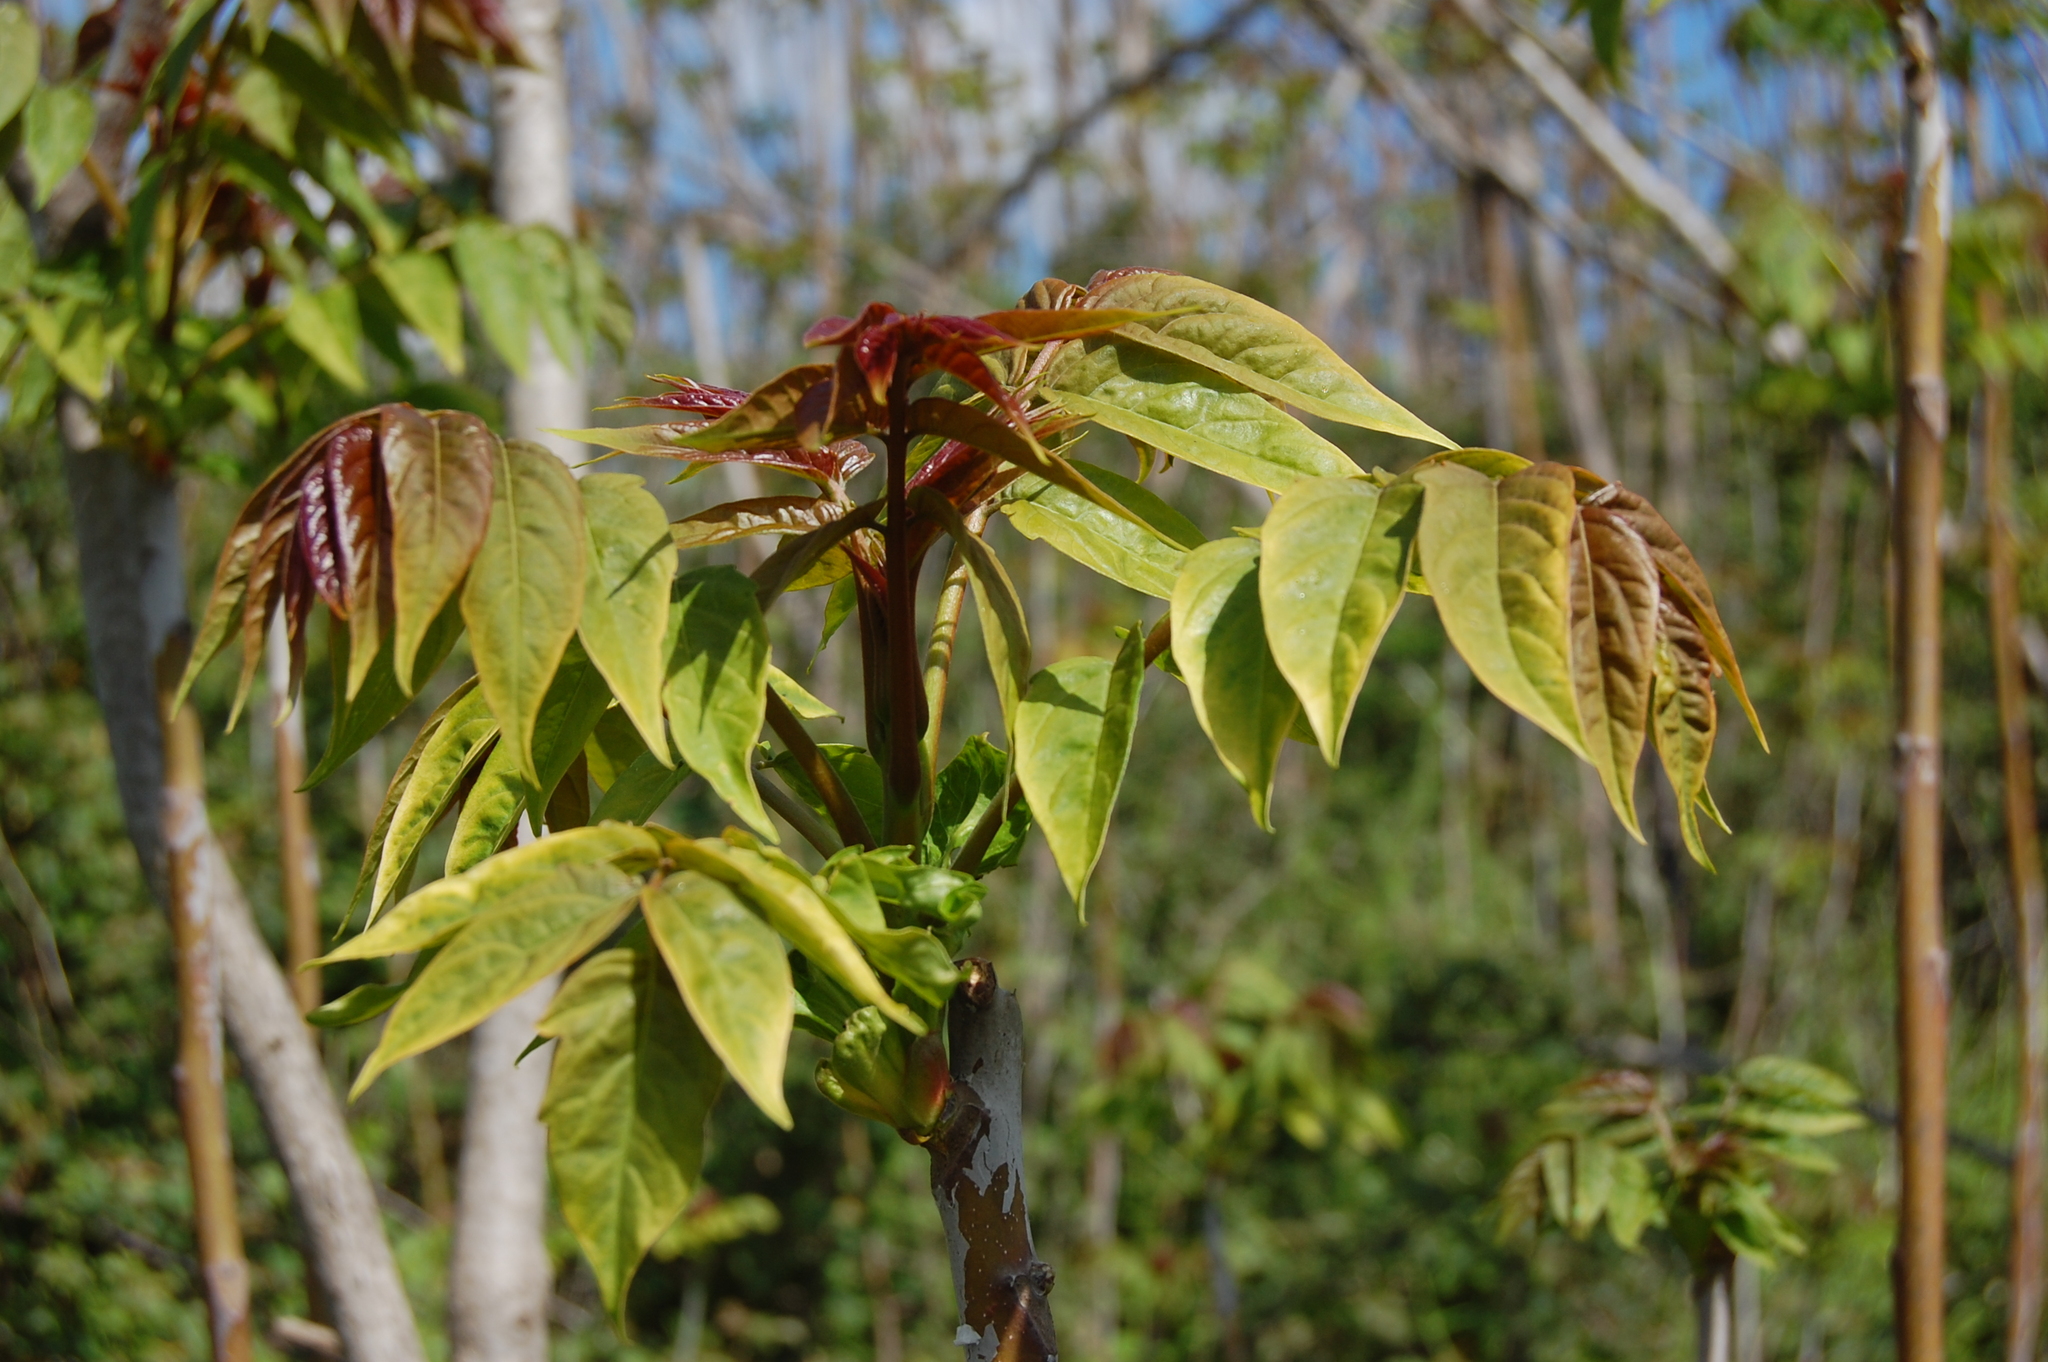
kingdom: Plantae
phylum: Tracheophyta
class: Magnoliopsida
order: Sapindales
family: Simaroubaceae
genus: Ailanthus
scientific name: Ailanthus altissima
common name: Tree-of-heaven
